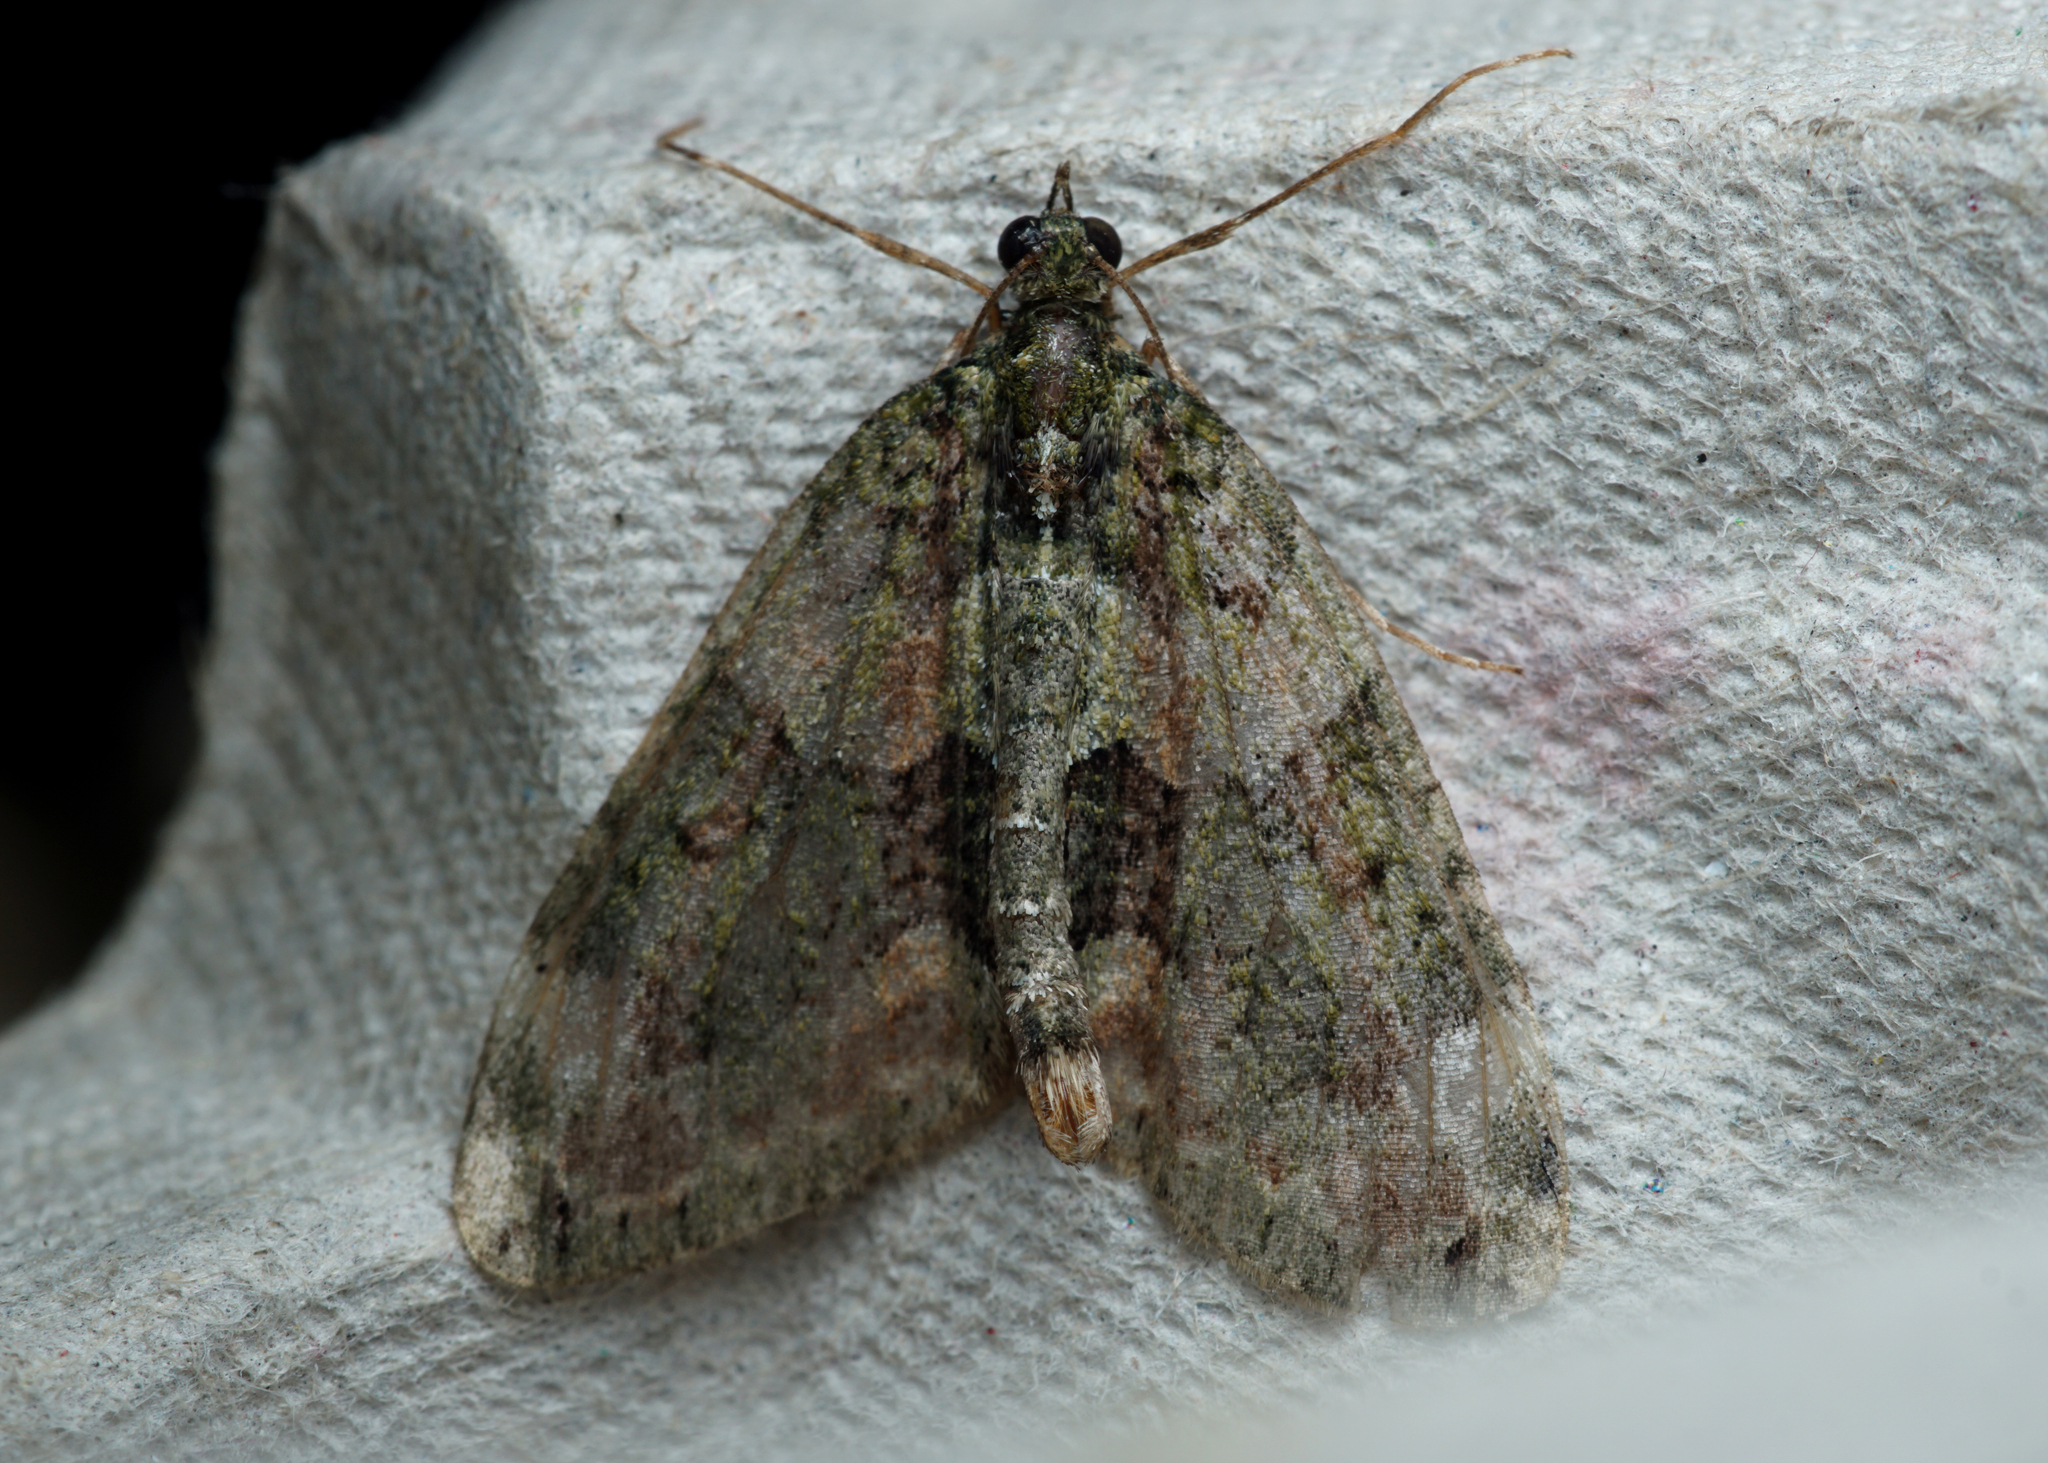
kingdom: Animalia
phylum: Arthropoda
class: Insecta
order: Lepidoptera
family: Geometridae
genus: Chloroclysta
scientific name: Chloroclysta siterata
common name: Red-green carpet
